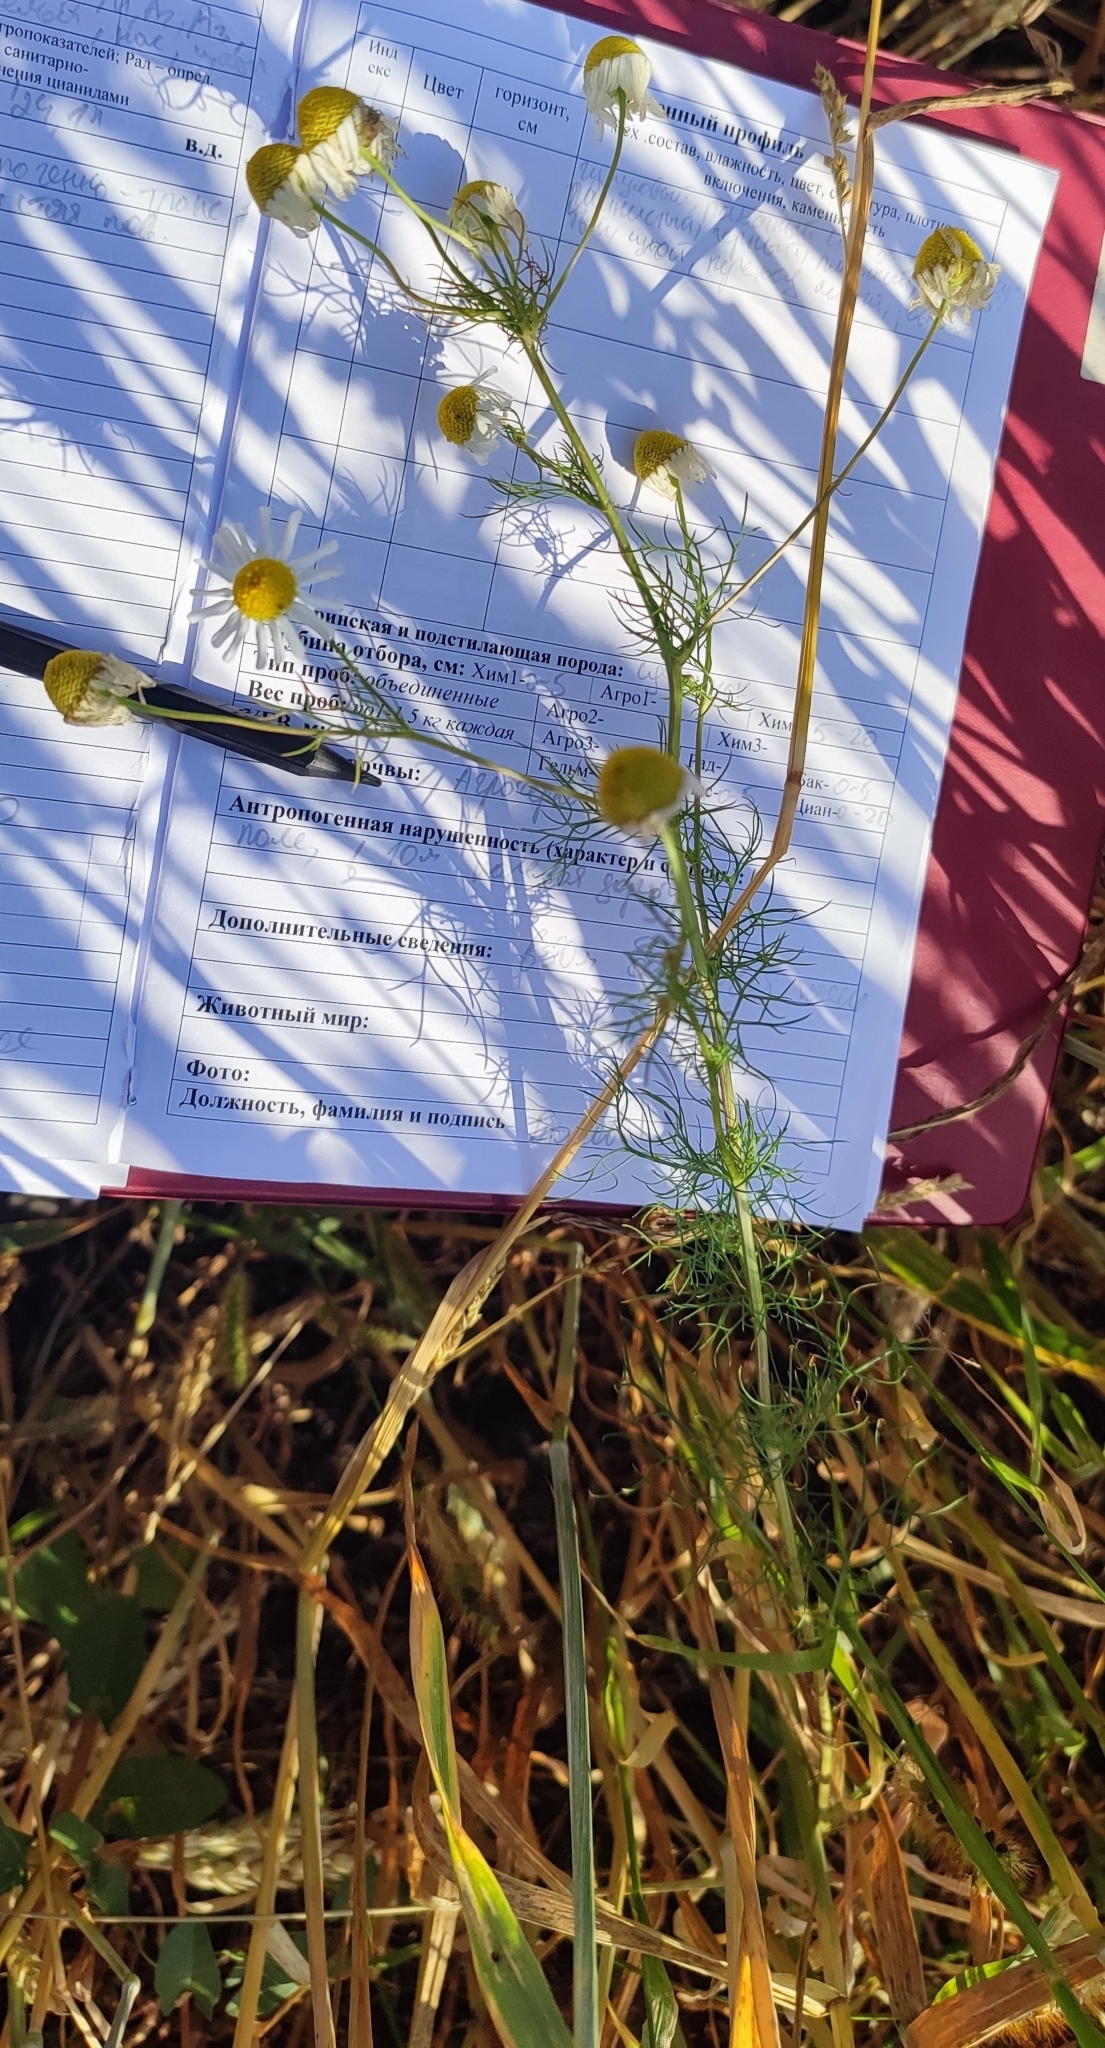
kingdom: Plantae
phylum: Tracheophyta
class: Magnoliopsida
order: Asterales
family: Asteraceae
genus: Tripleurospermum
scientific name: Tripleurospermum inodorum
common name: Scentless mayweed
